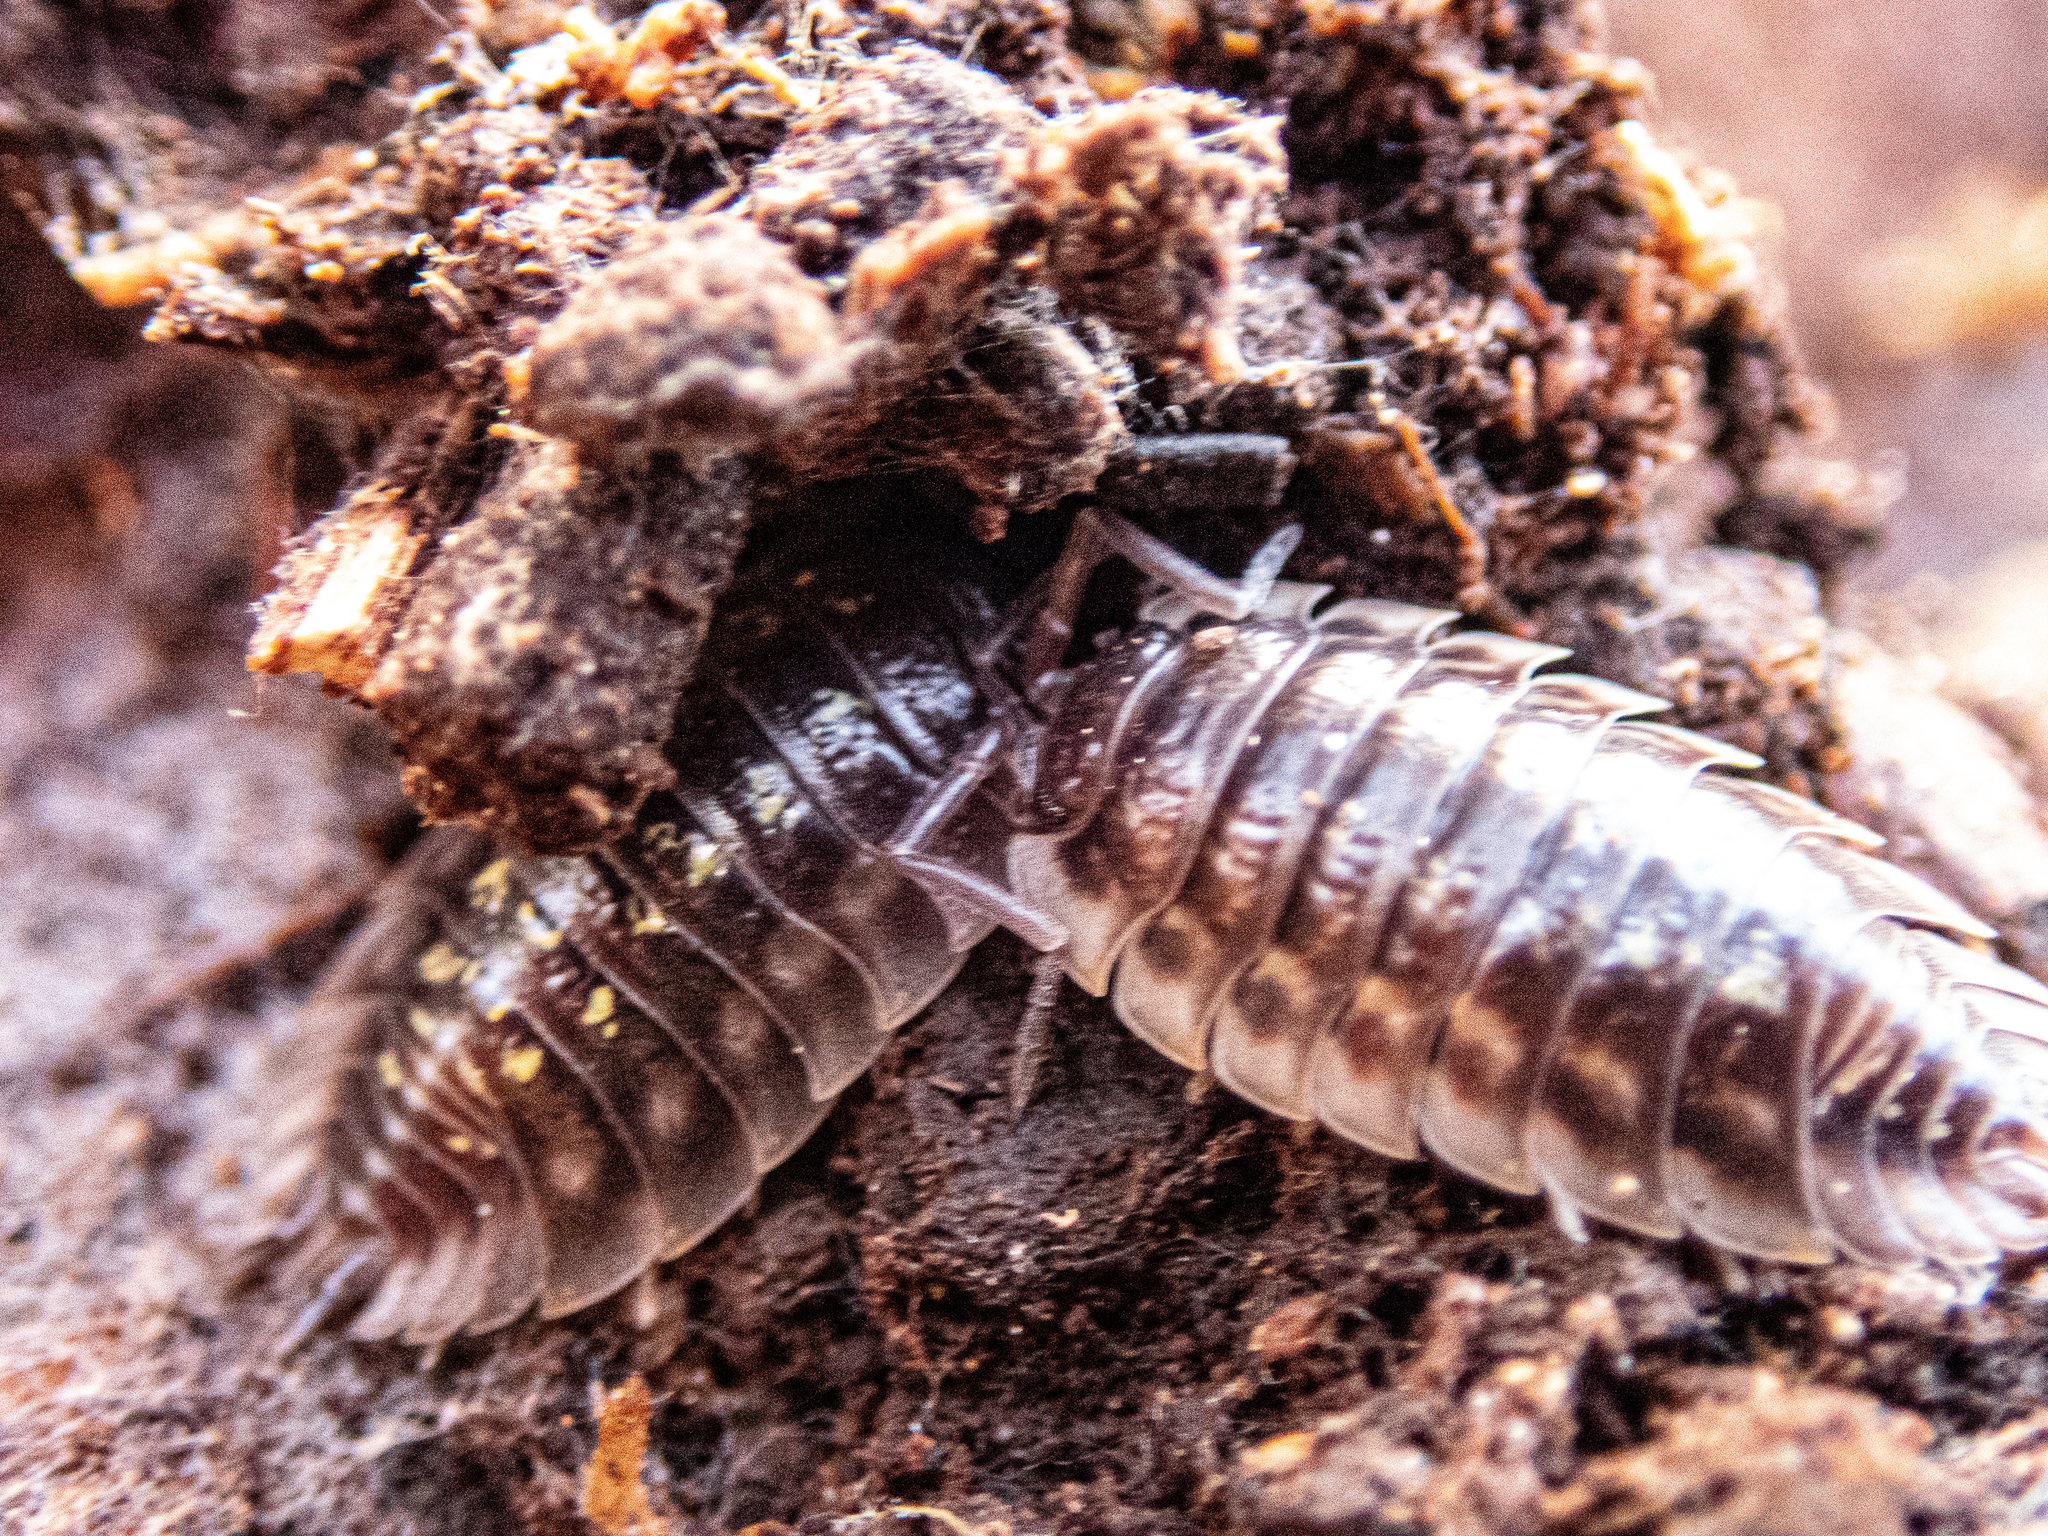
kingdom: Animalia
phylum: Arthropoda
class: Malacostraca
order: Isopoda
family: Oniscidae
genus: Oniscus
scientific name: Oniscus asellus
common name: Common shiny woodlouse
